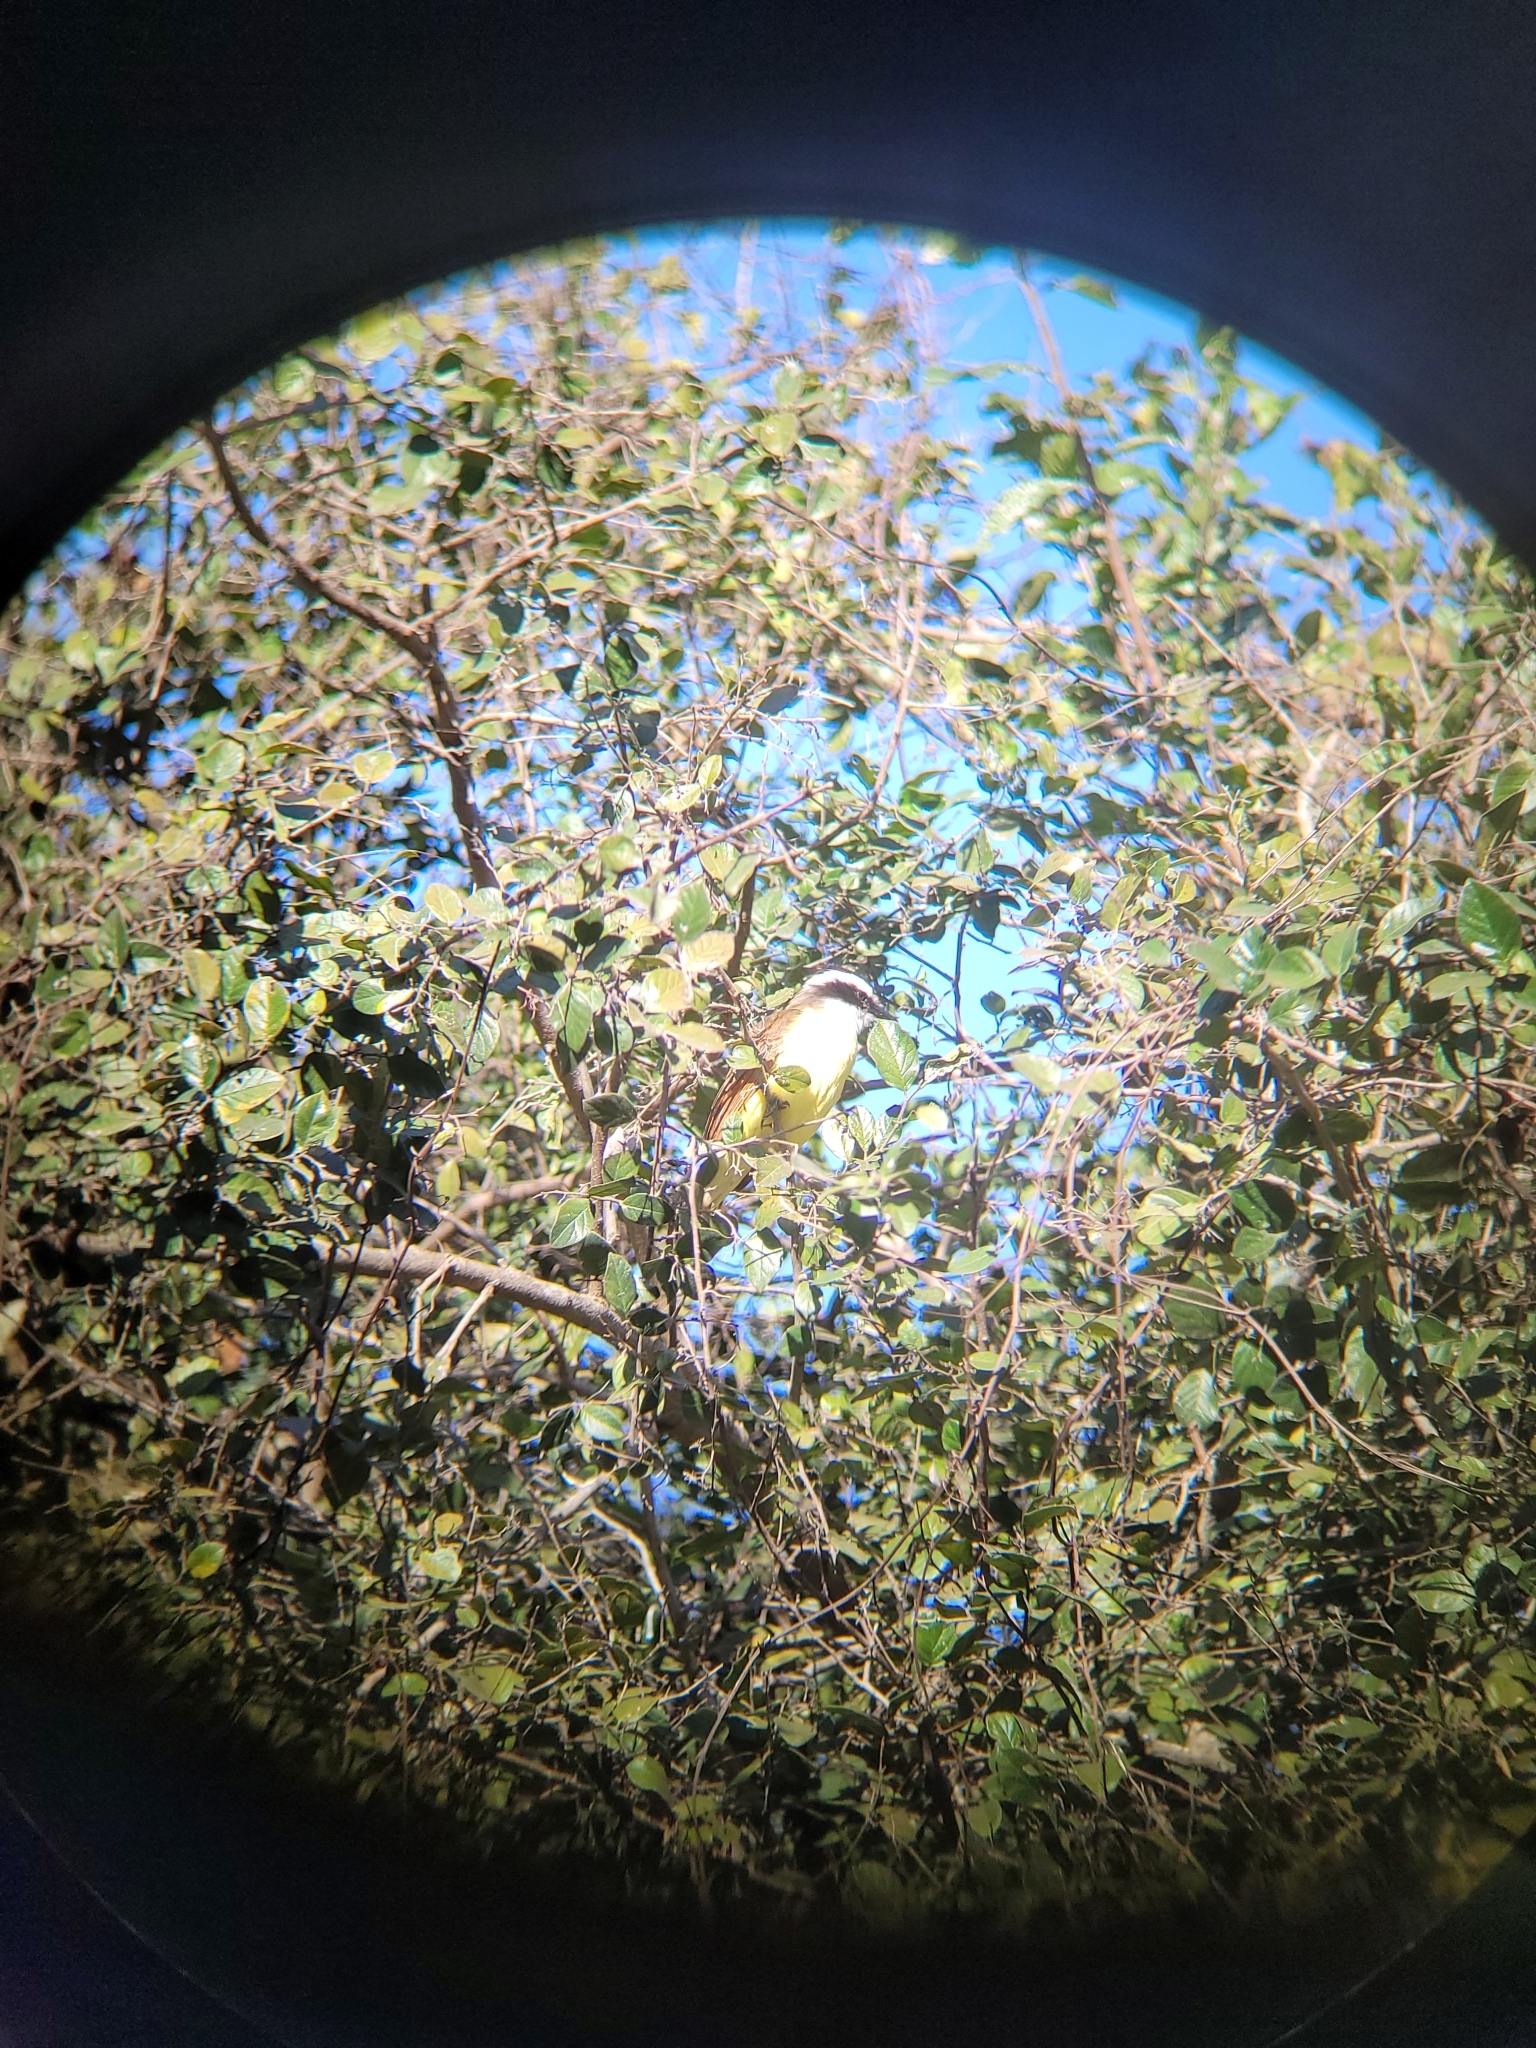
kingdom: Animalia
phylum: Chordata
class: Aves
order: Passeriformes
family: Tyrannidae
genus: Pitangus
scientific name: Pitangus sulphuratus
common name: Great kiskadee
